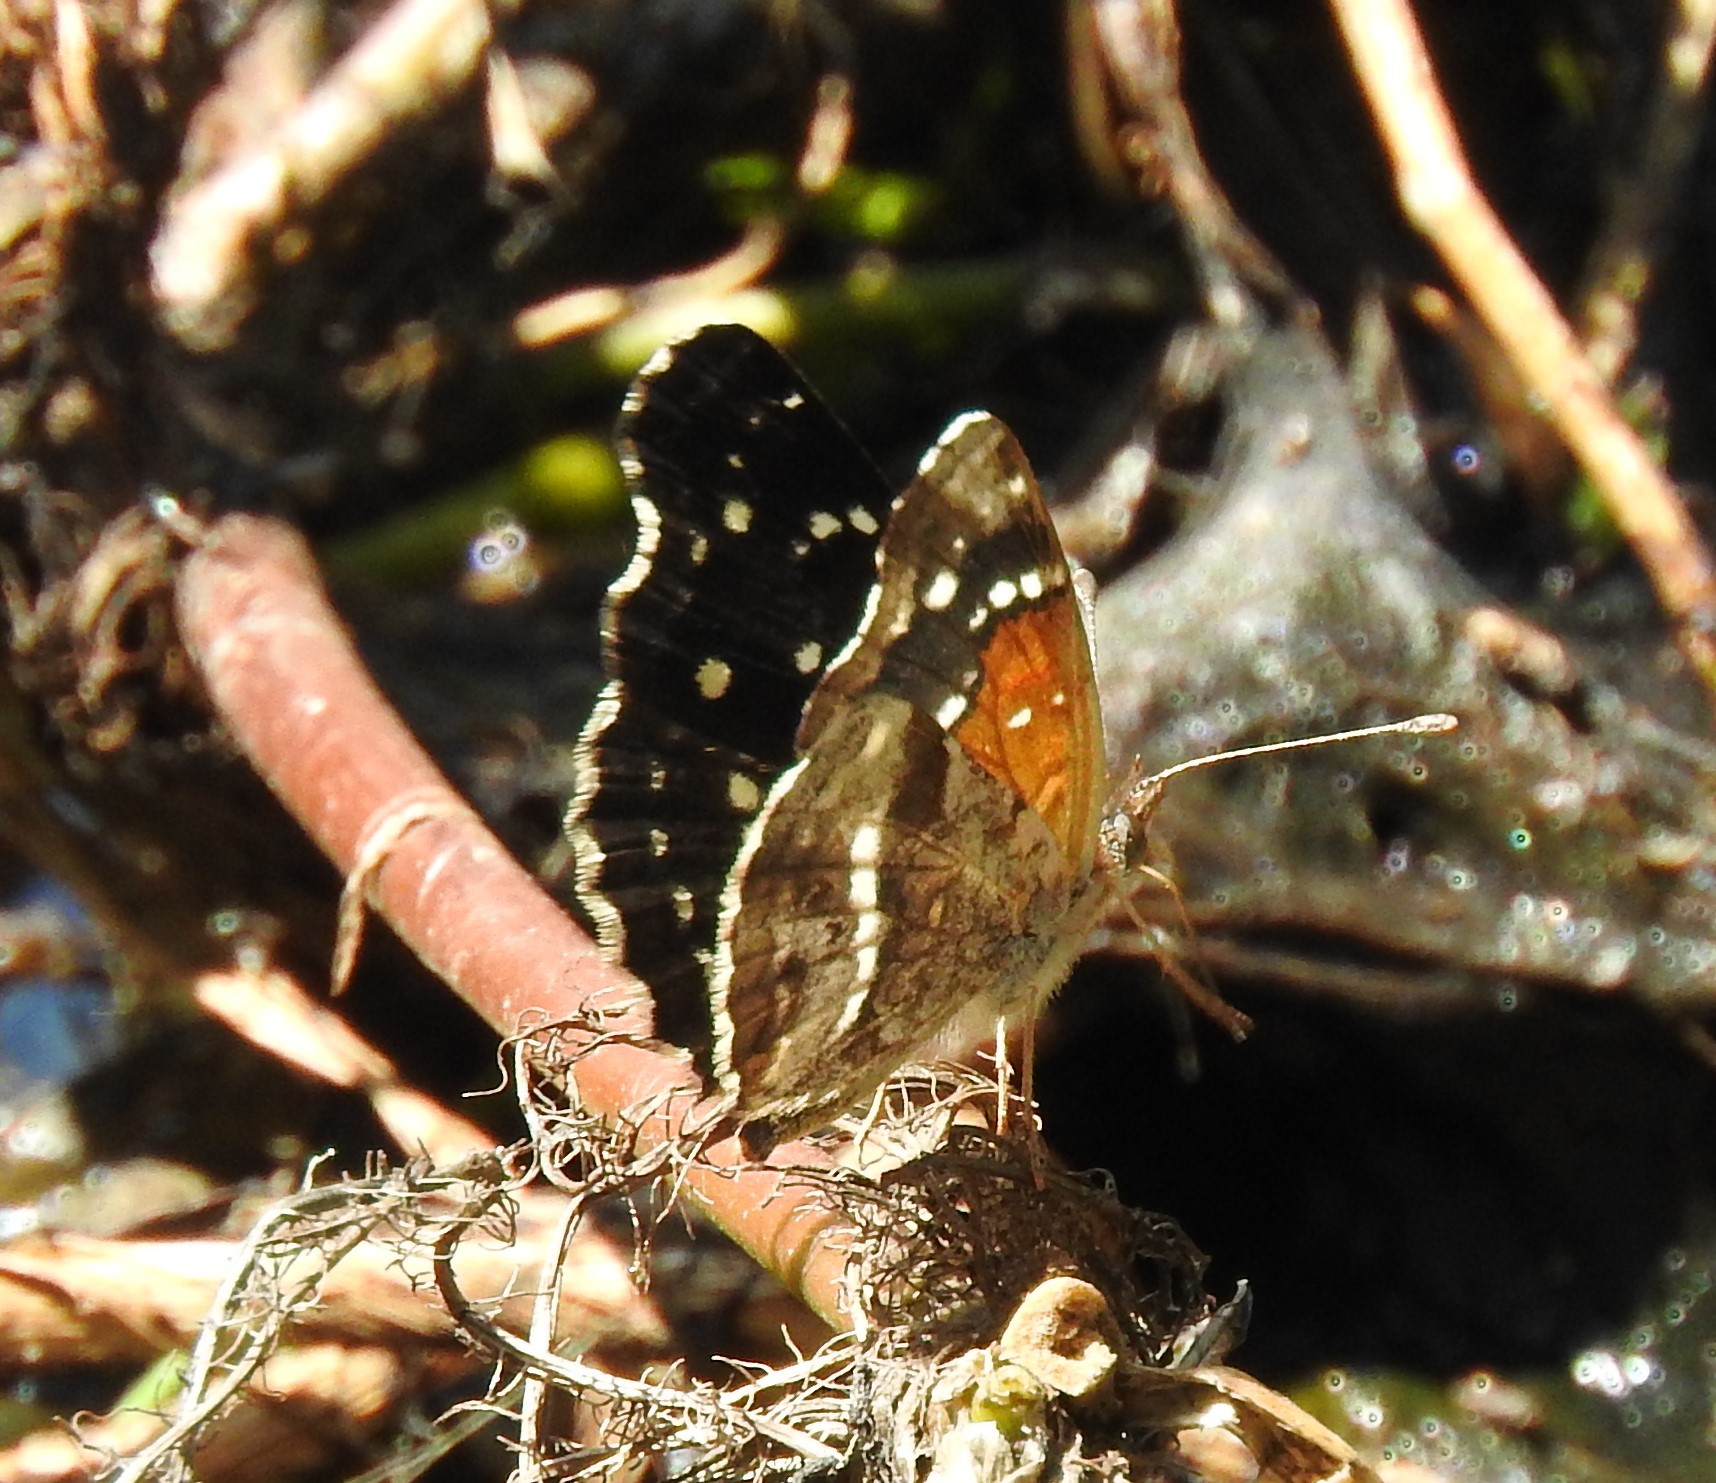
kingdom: Animalia
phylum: Arthropoda
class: Insecta
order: Lepidoptera
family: Nymphalidae
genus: Anthanassa
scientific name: Anthanassa texana
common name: Texan crescent
